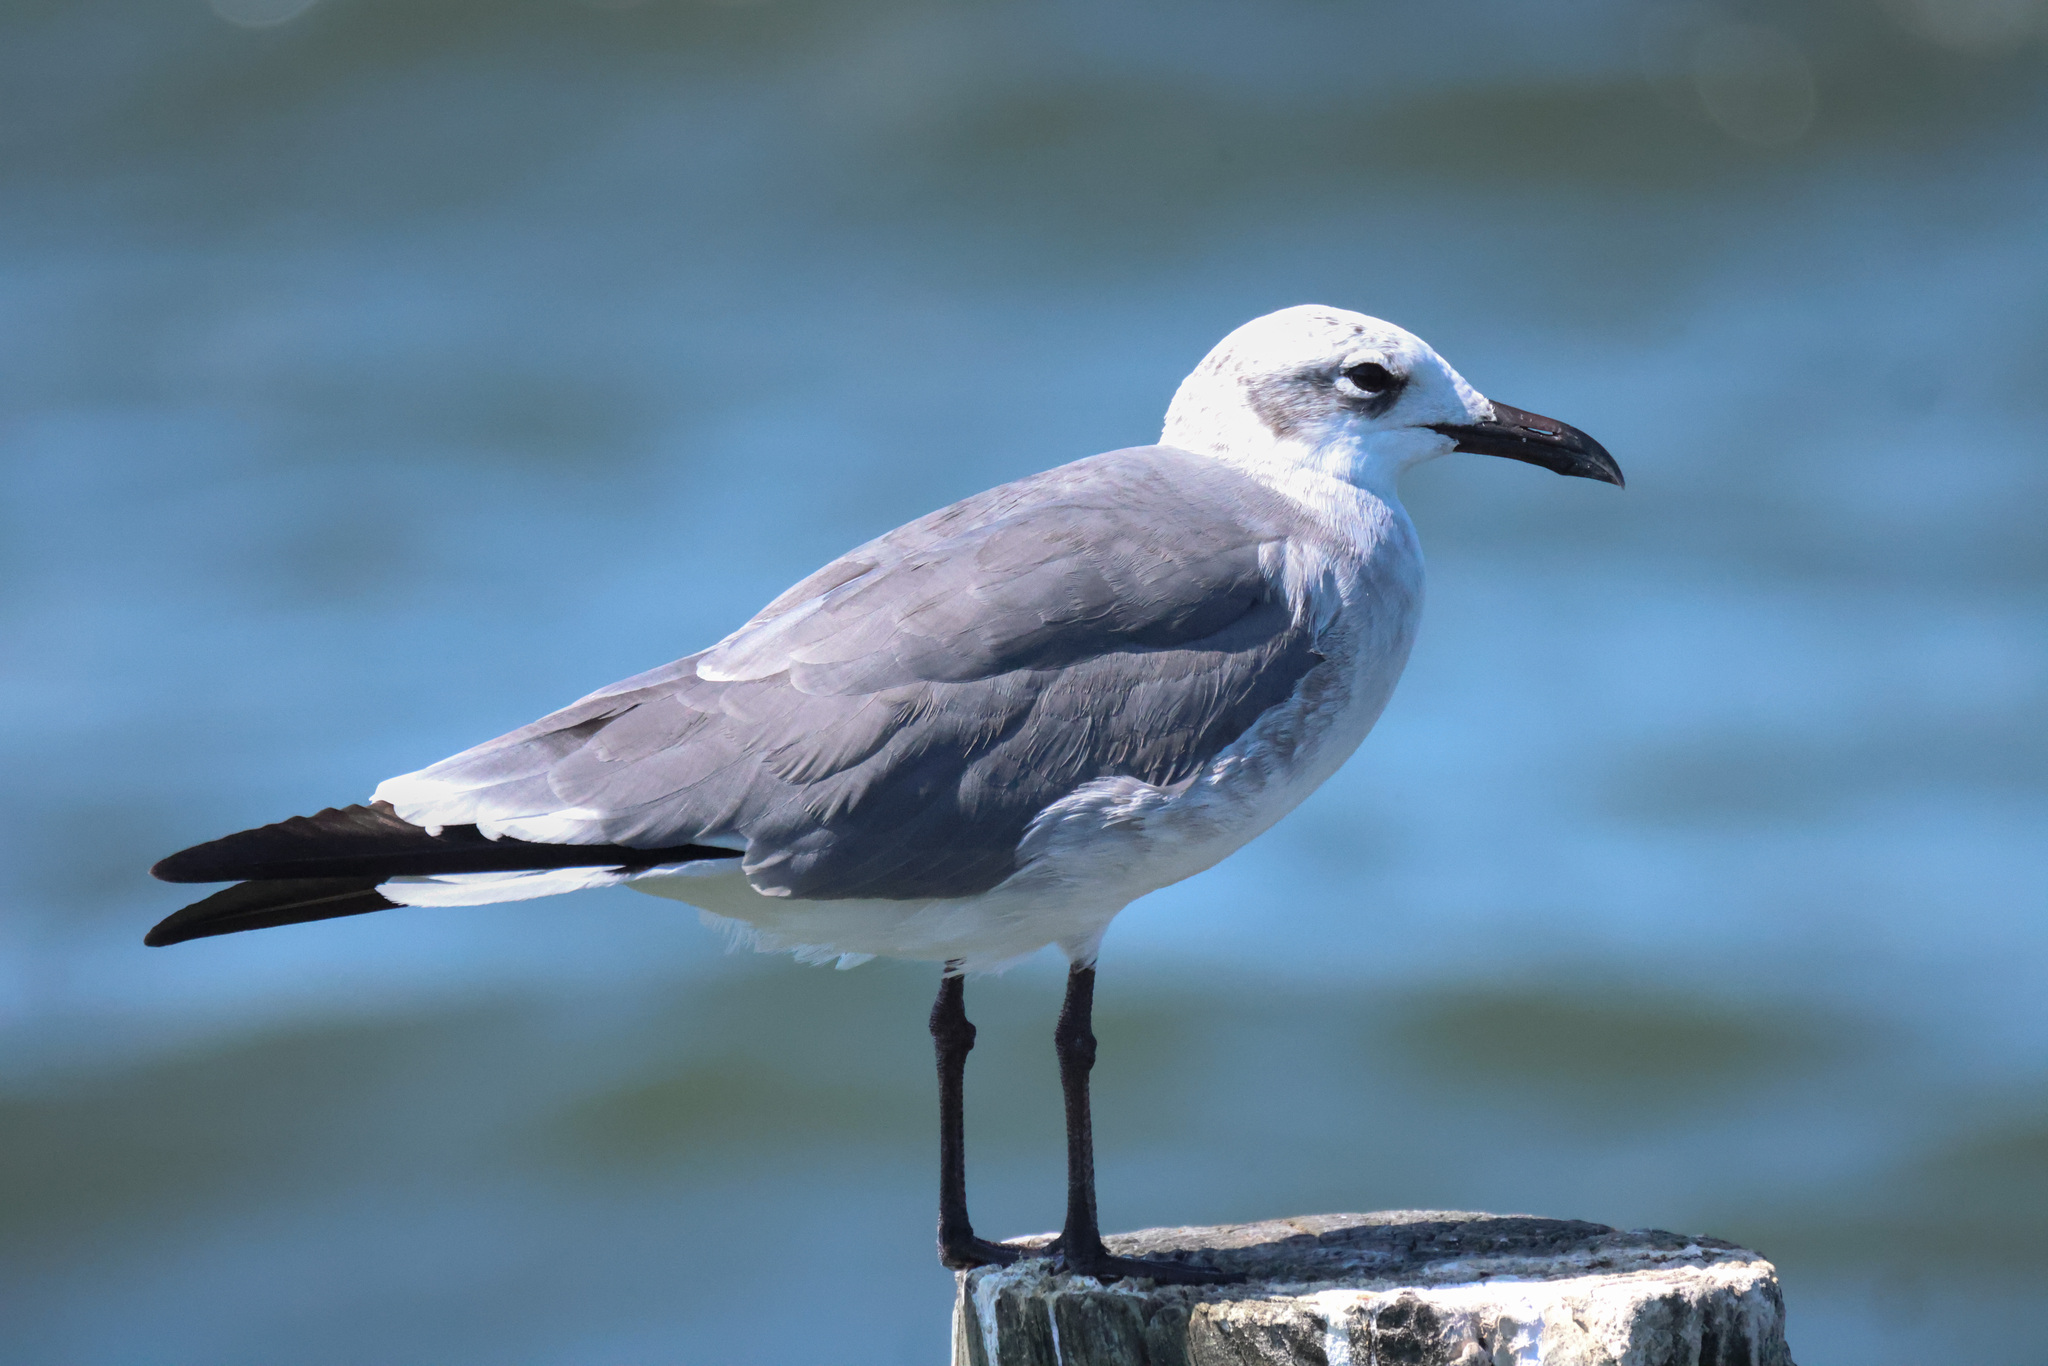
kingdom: Animalia
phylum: Chordata
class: Aves
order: Charadriiformes
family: Laridae
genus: Leucophaeus
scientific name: Leucophaeus atricilla
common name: Laughing gull
